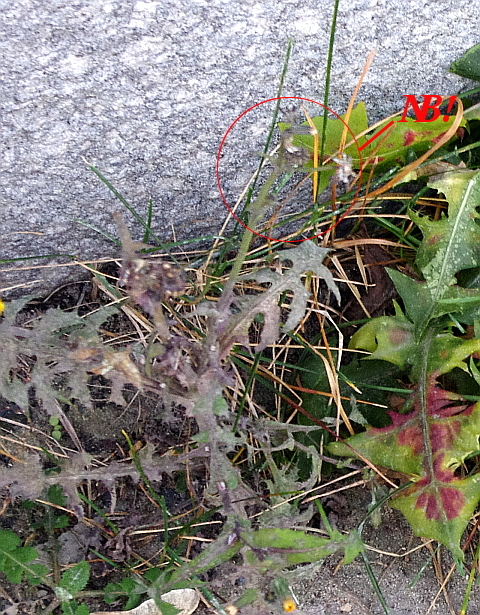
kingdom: Plantae
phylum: Tracheophyta
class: Magnoliopsida
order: Asterales
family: Asteraceae
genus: Sonchus
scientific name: Sonchus oleraceus
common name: Common sowthistle
